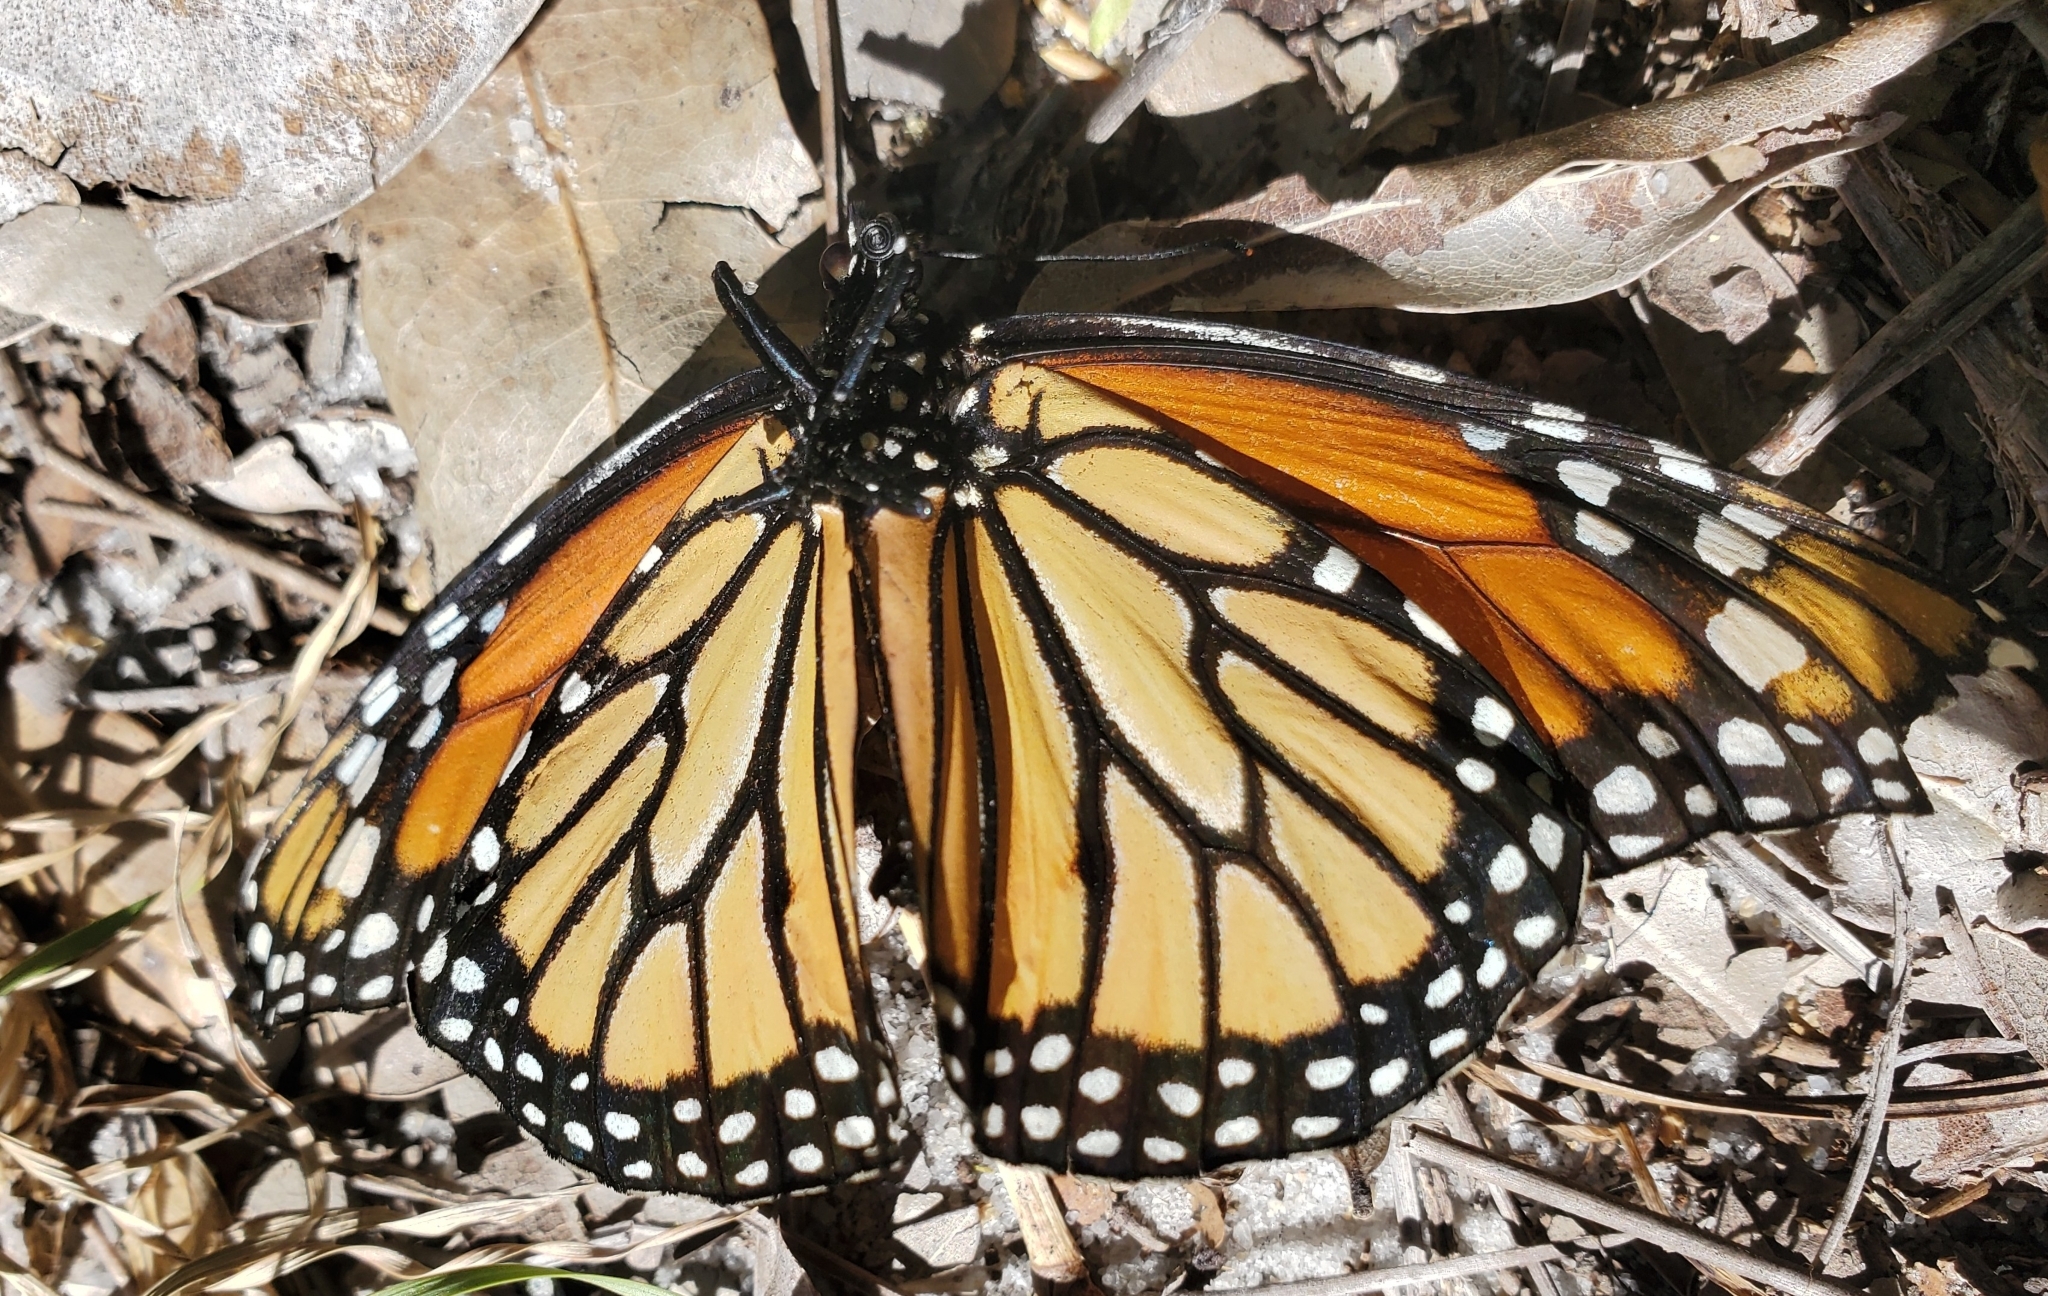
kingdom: Animalia
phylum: Arthropoda
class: Insecta
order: Lepidoptera
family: Nymphalidae
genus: Danaus
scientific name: Danaus plexippus
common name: Monarch
